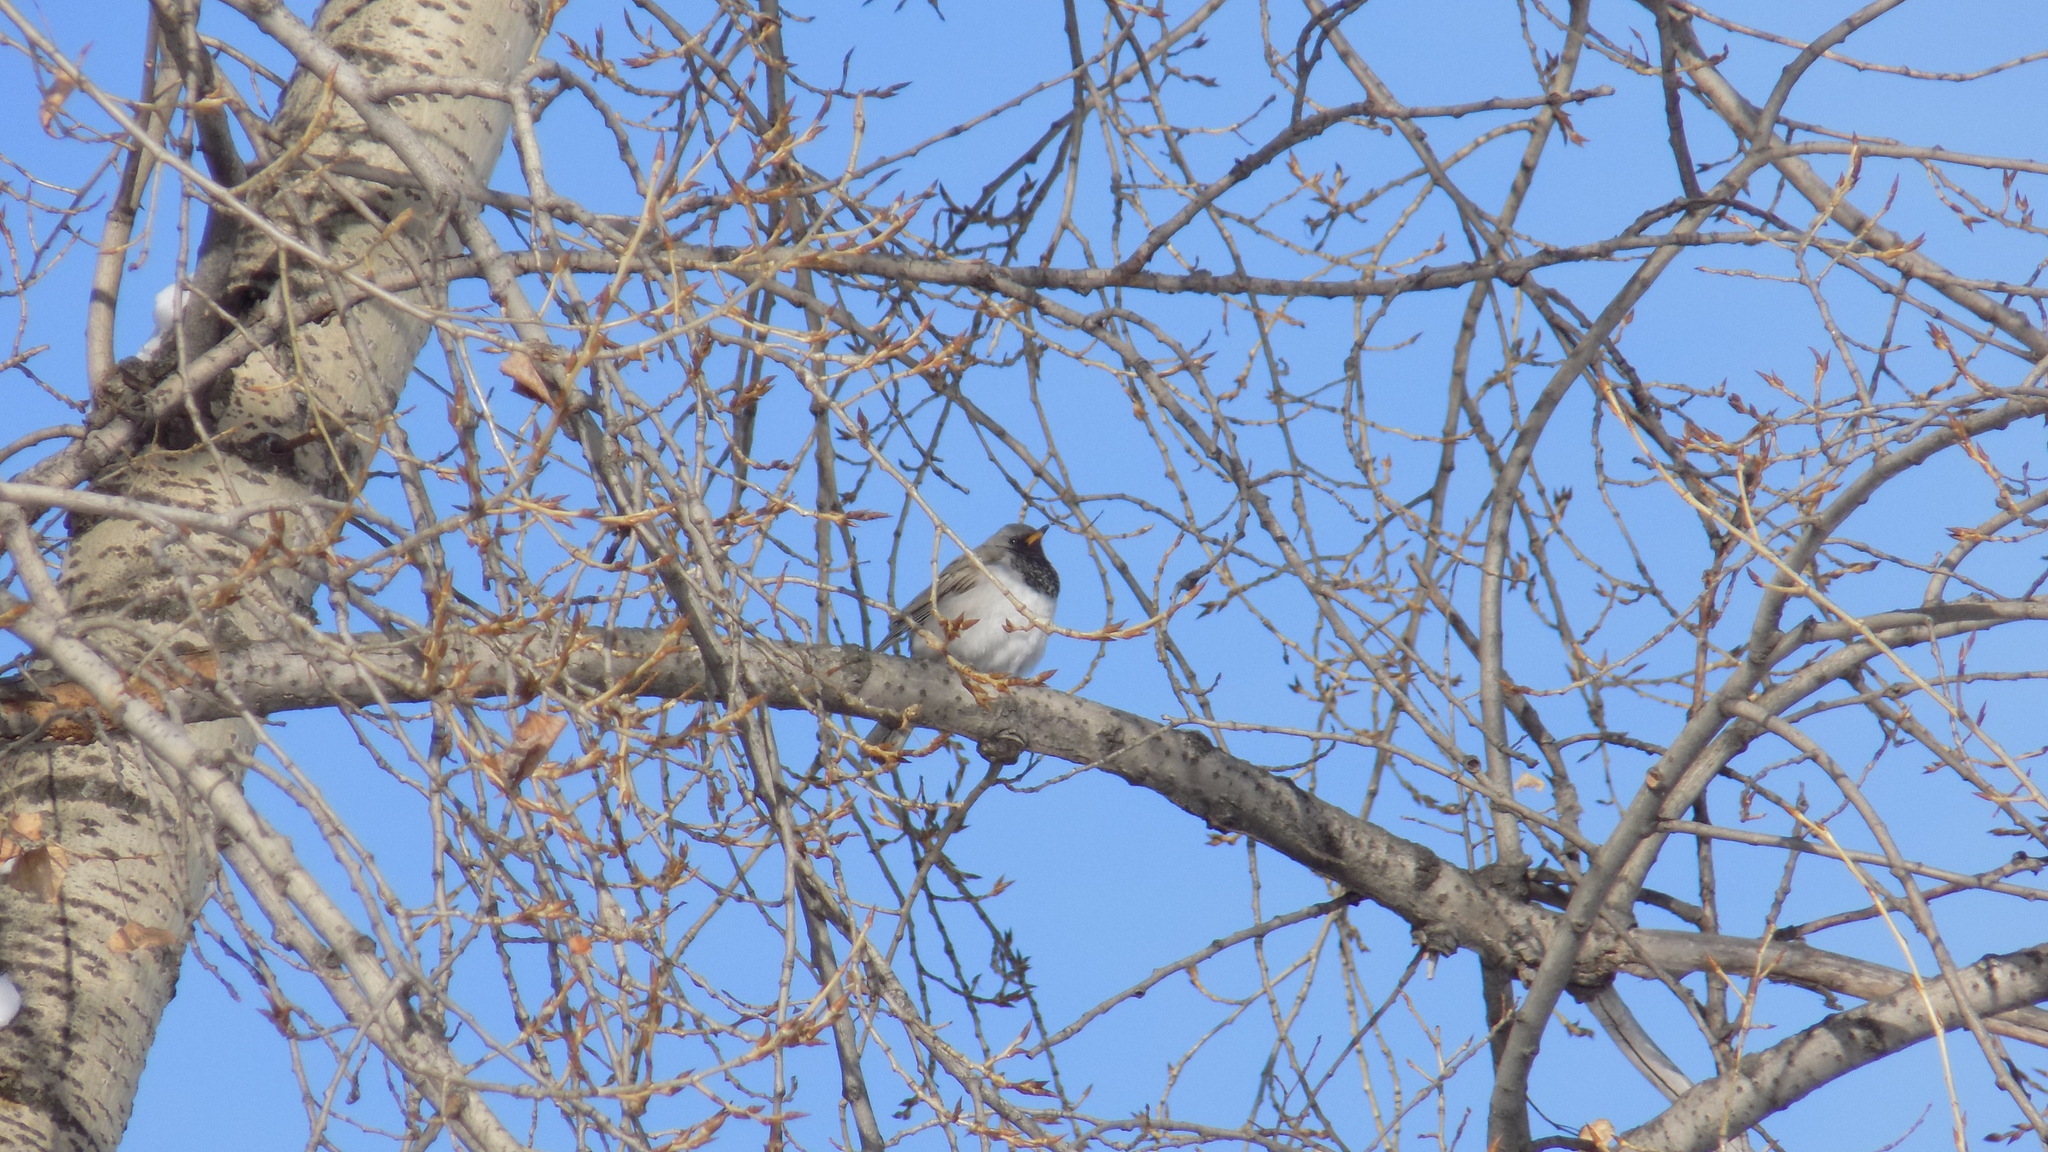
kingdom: Animalia
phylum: Chordata
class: Aves
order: Passeriformes
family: Turdidae
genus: Turdus
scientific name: Turdus atrogularis
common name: Black-throated thrush
